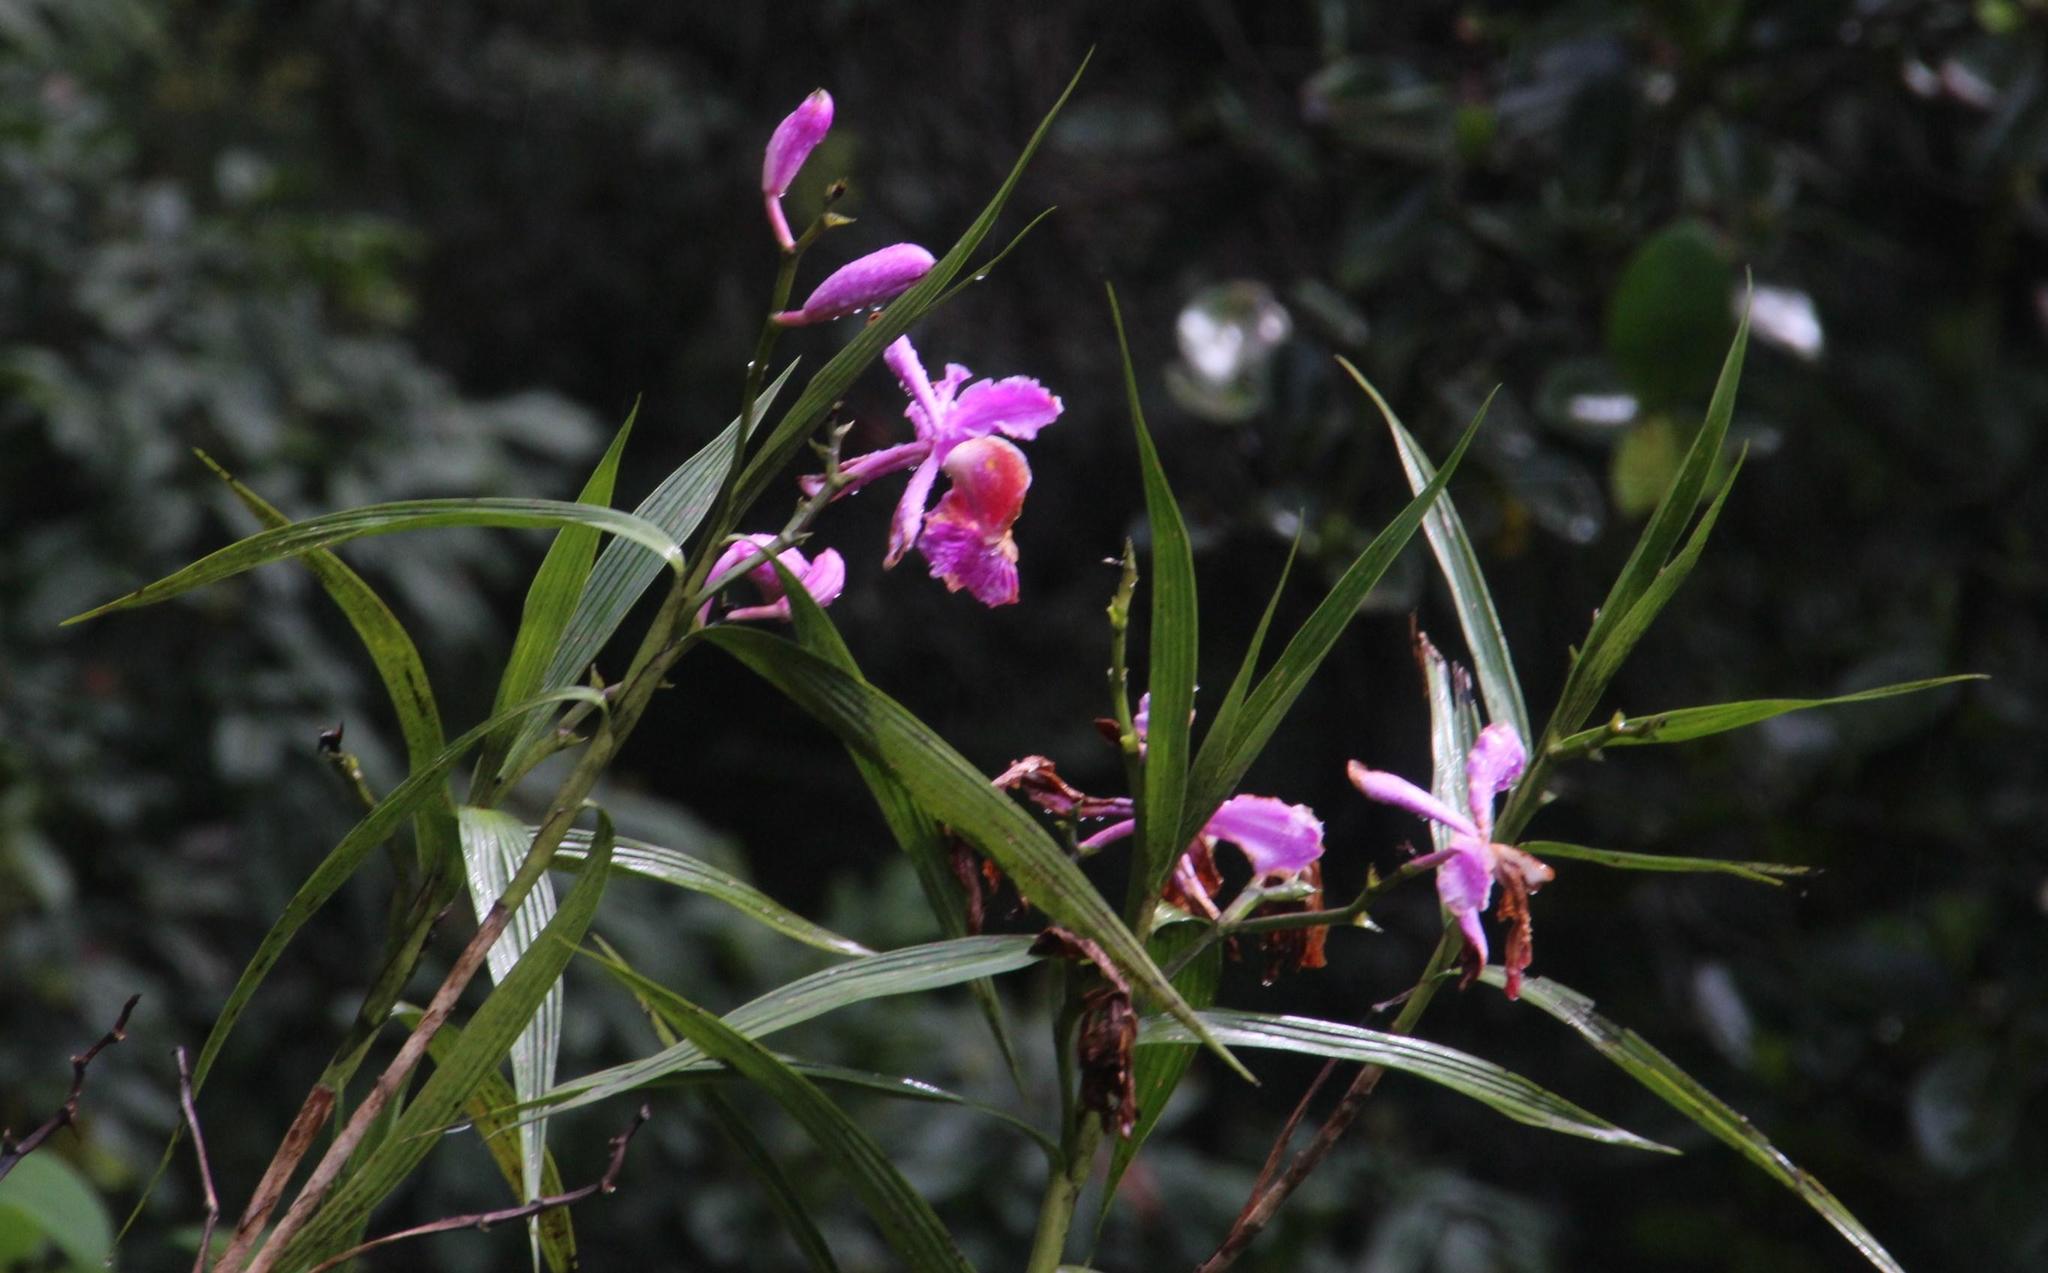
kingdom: Plantae
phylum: Tracheophyta
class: Liliopsida
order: Asparagales
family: Orchidaceae
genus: Sobralia
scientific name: Sobralia dichotoma
